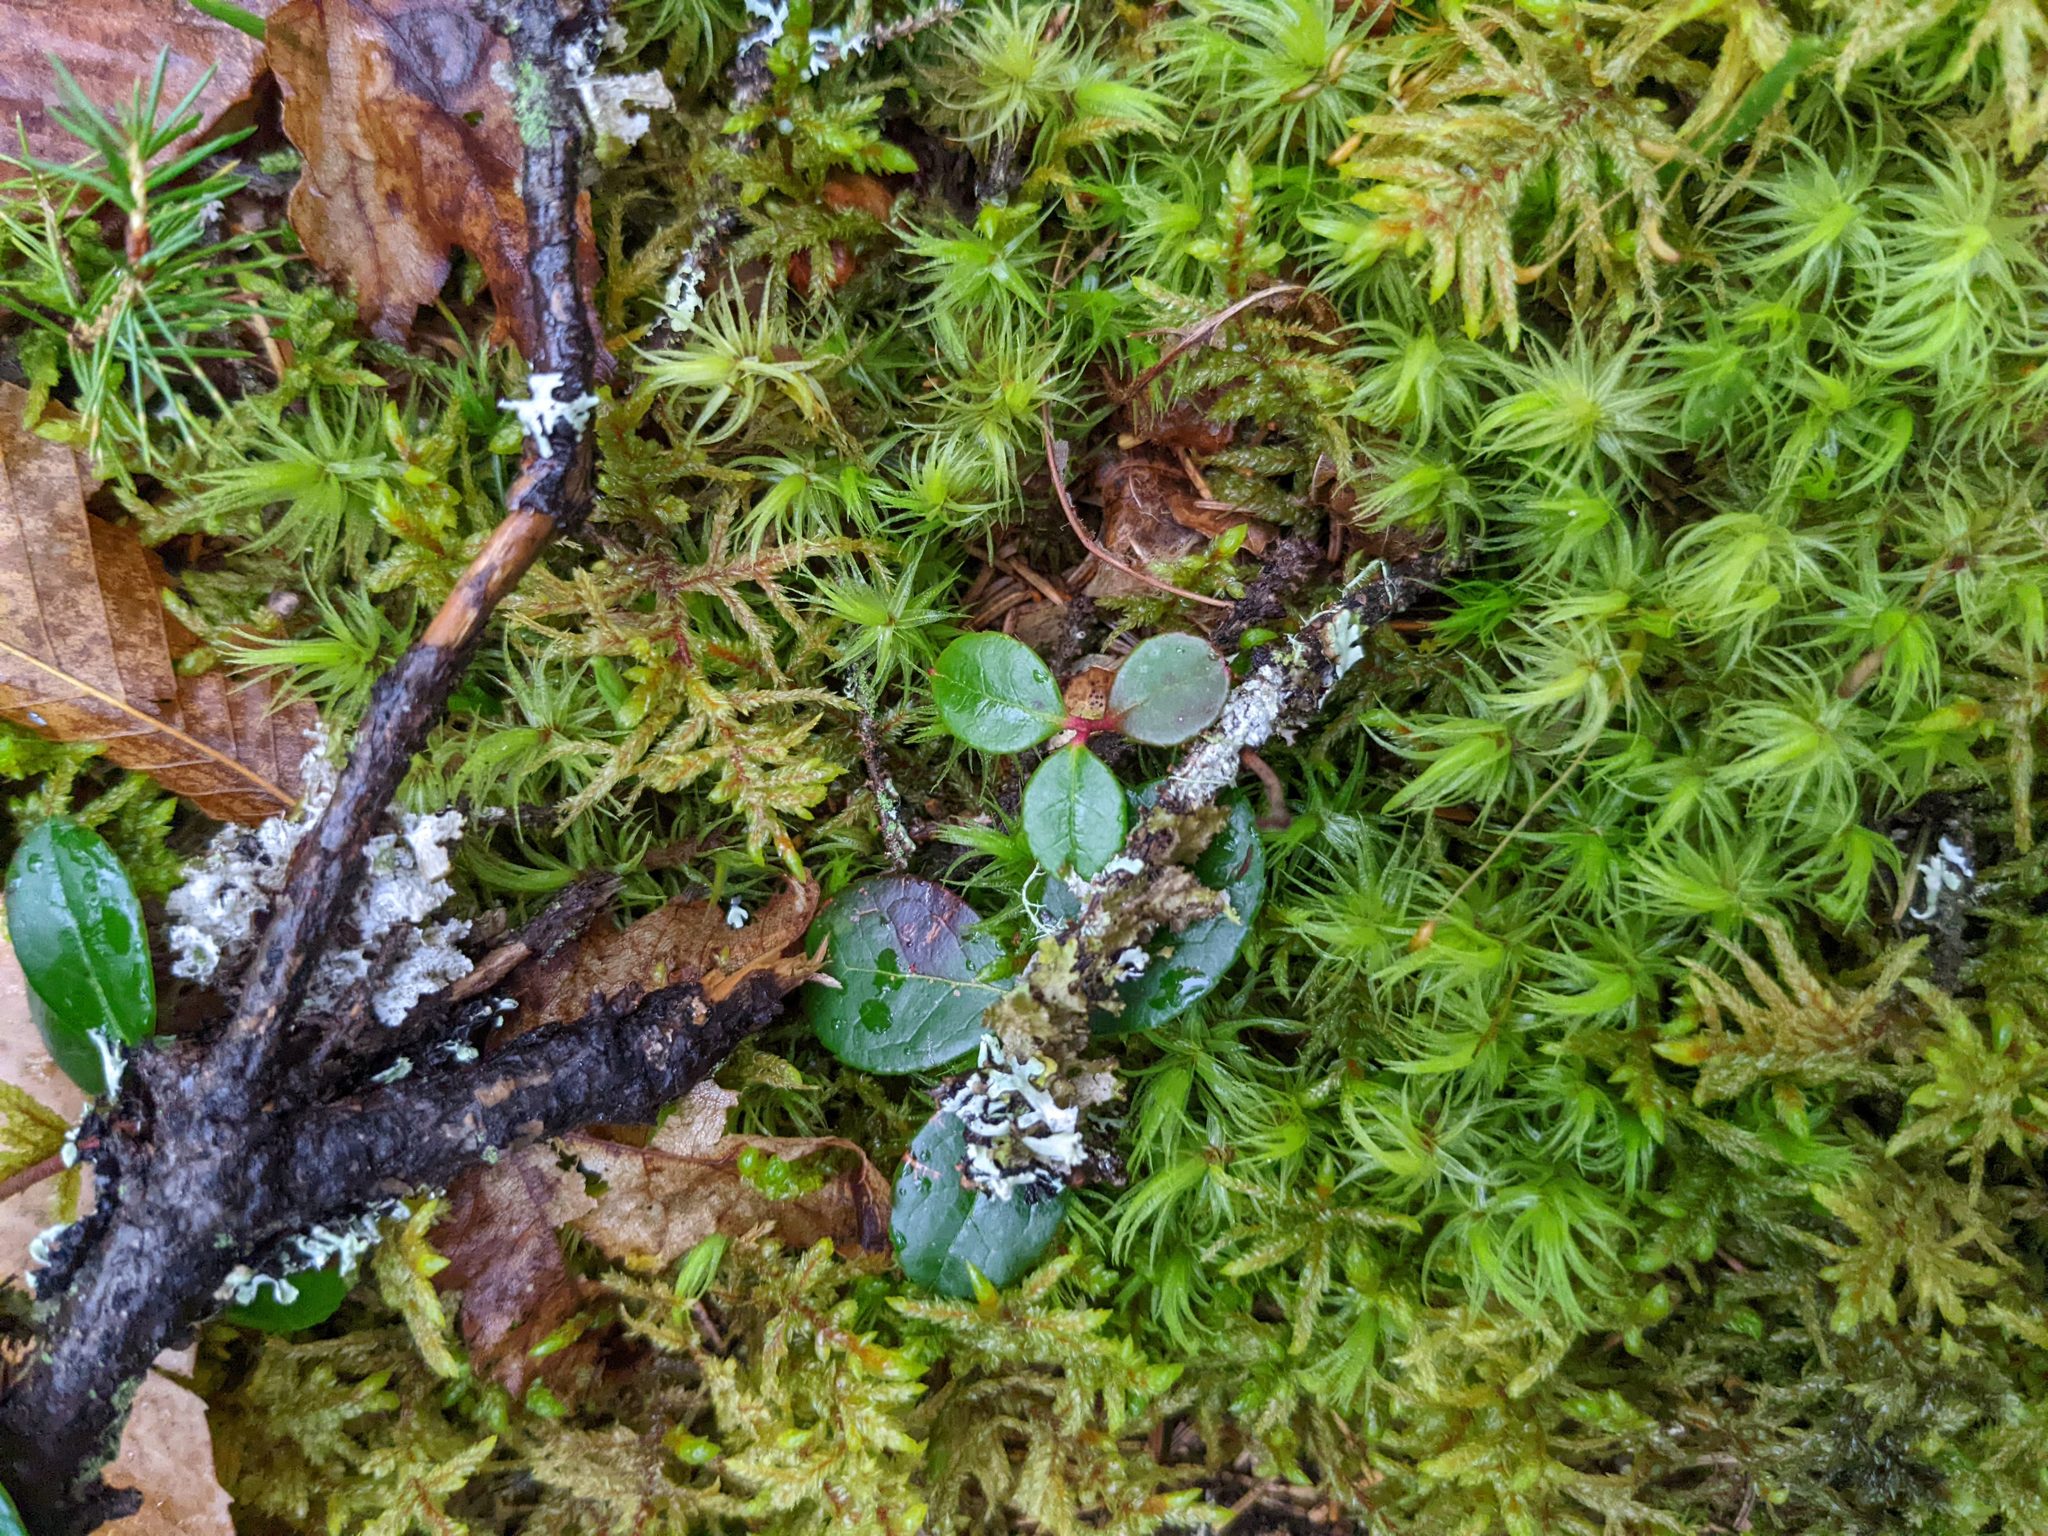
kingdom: Plantae
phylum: Tracheophyta
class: Magnoliopsida
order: Ericales
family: Ericaceae
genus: Gaultheria
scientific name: Gaultheria procumbens
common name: Checkerberry
